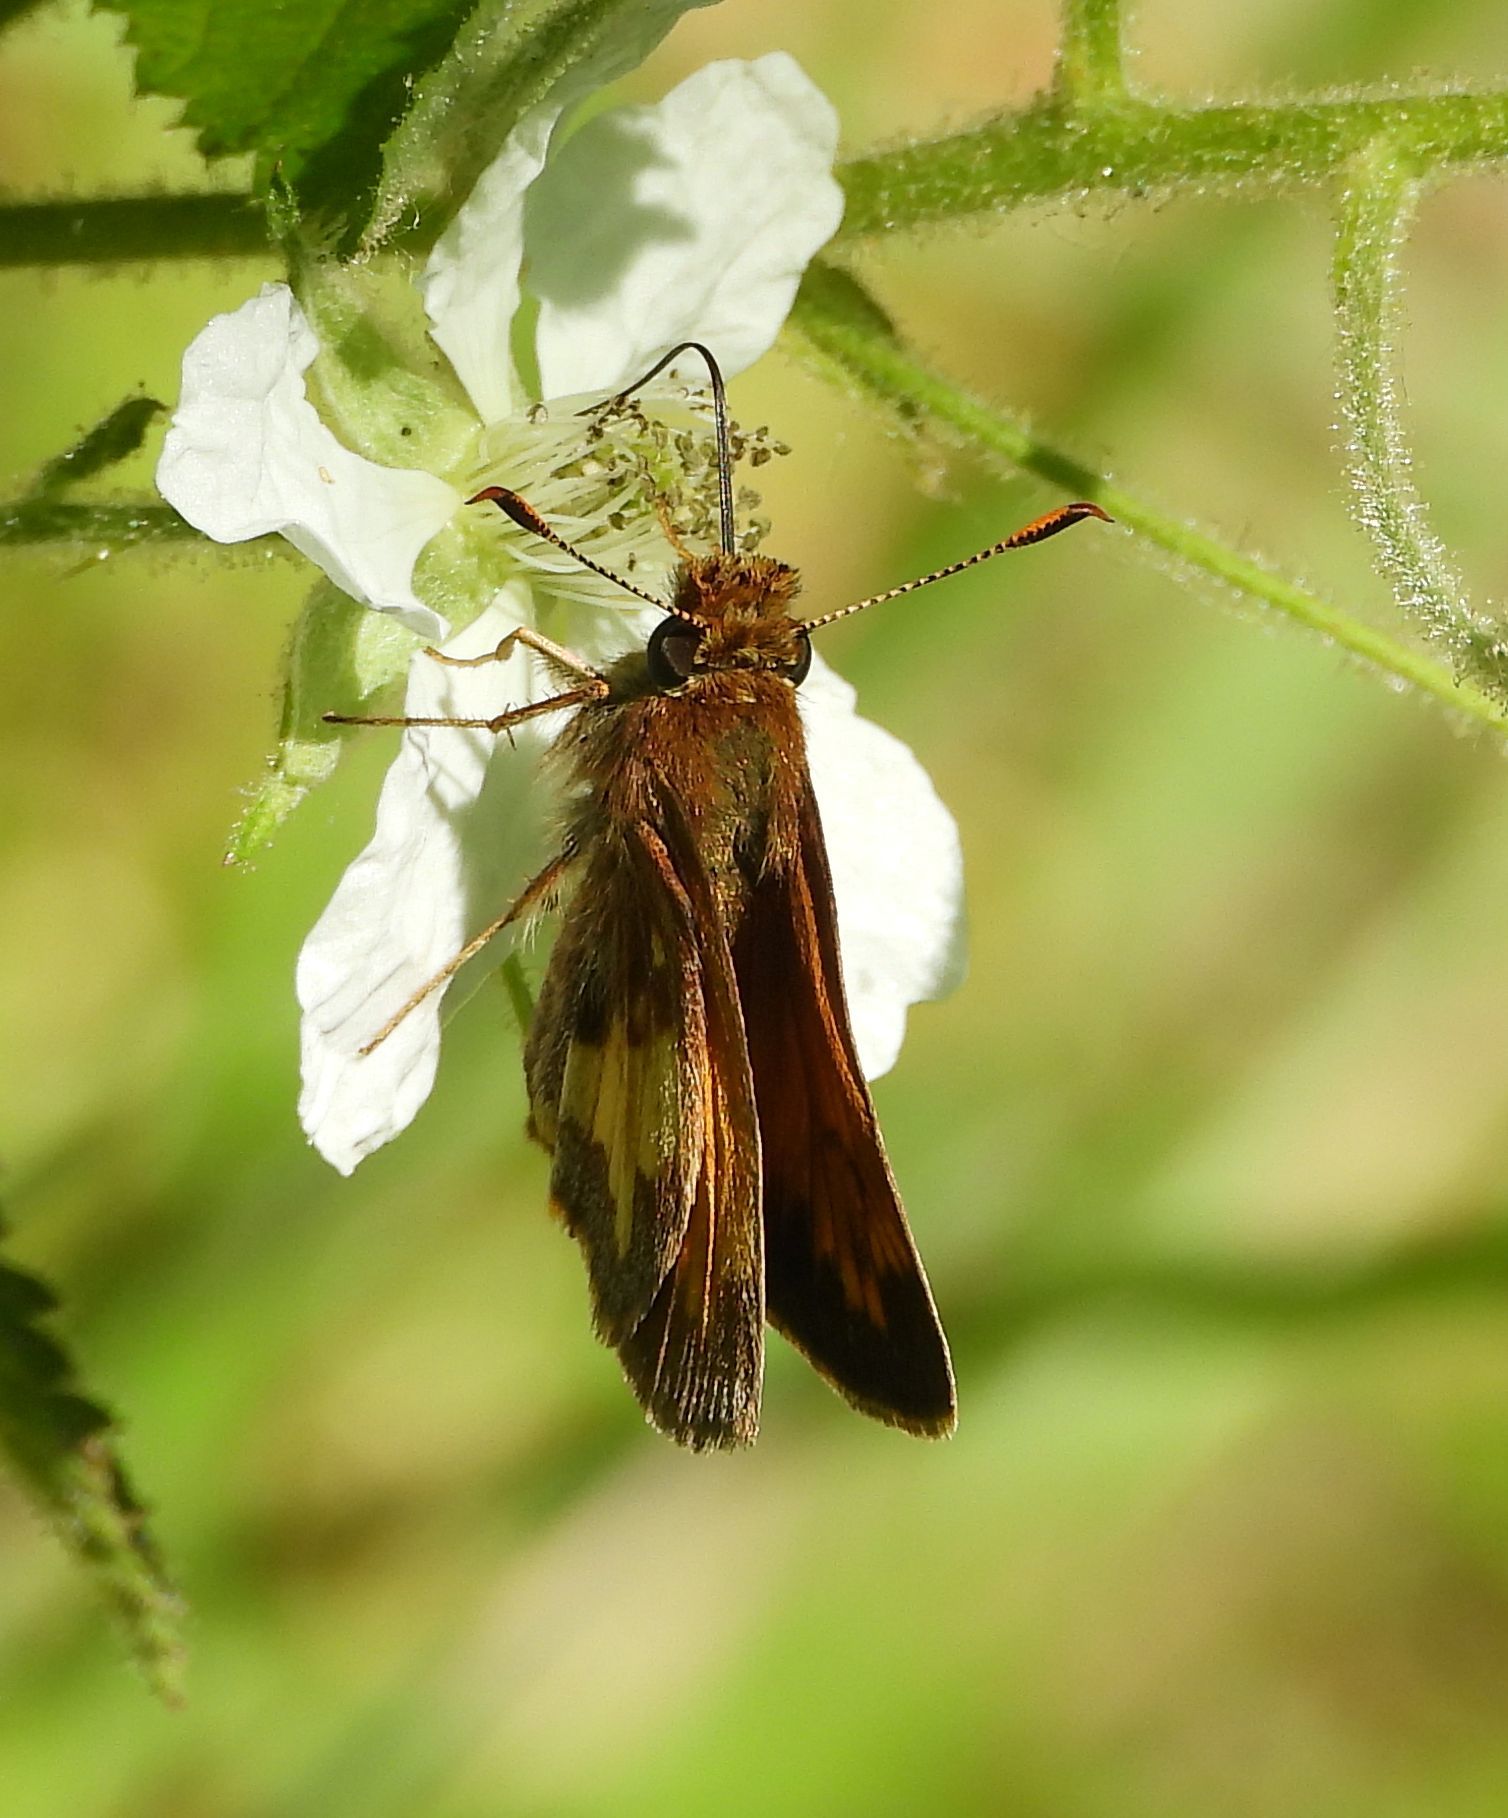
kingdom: Animalia
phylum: Arthropoda
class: Insecta
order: Lepidoptera
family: Hesperiidae
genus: Lon
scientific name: Lon hobomok
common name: Hobomok skipper
